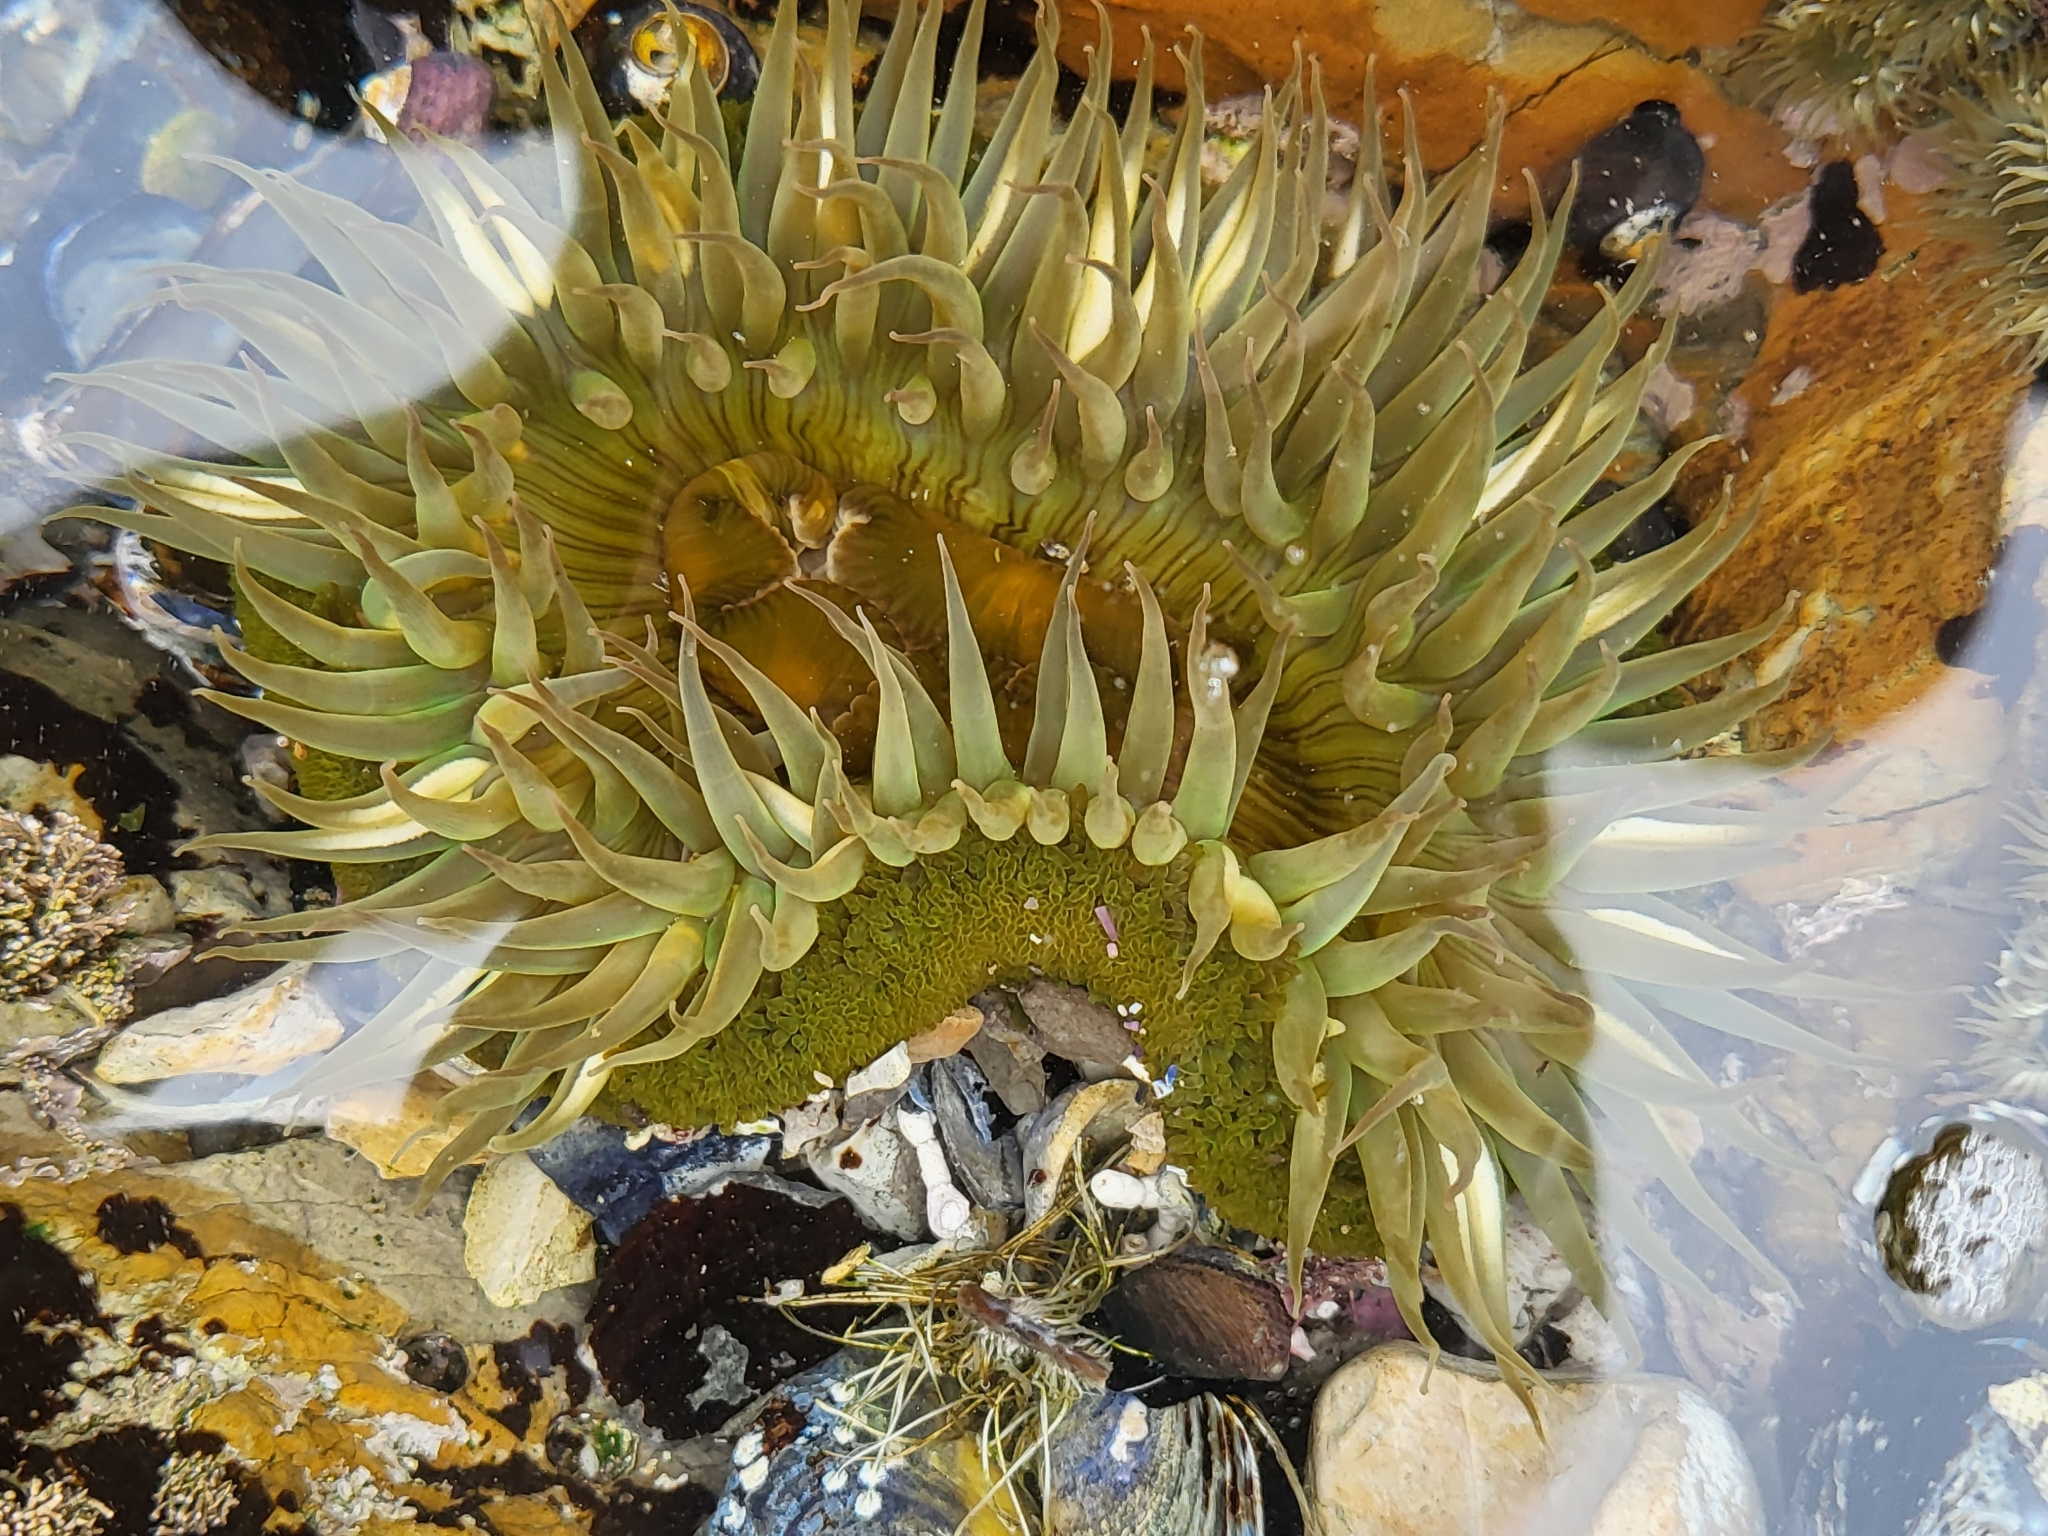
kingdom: Animalia
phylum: Cnidaria
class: Anthozoa
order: Actiniaria
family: Actiniidae
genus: Anthopleura
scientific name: Anthopleura sola
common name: Sun anemone
